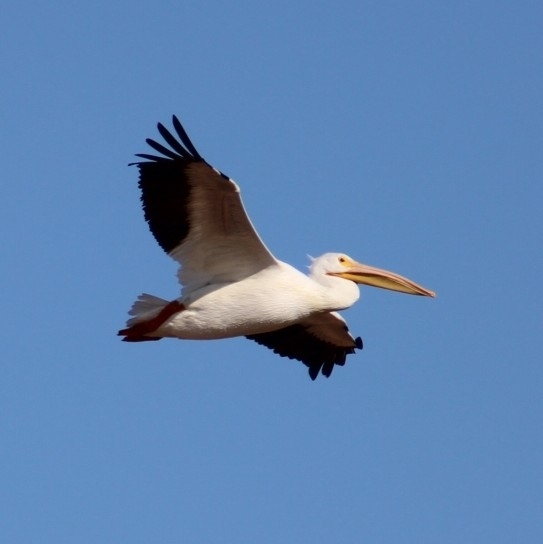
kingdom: Animalia
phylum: Chordata
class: Aves
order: Pelecaniformes
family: Pelecanidae
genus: Pelecanus
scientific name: Pelecanus erythrorhynchos
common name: American white pelican
